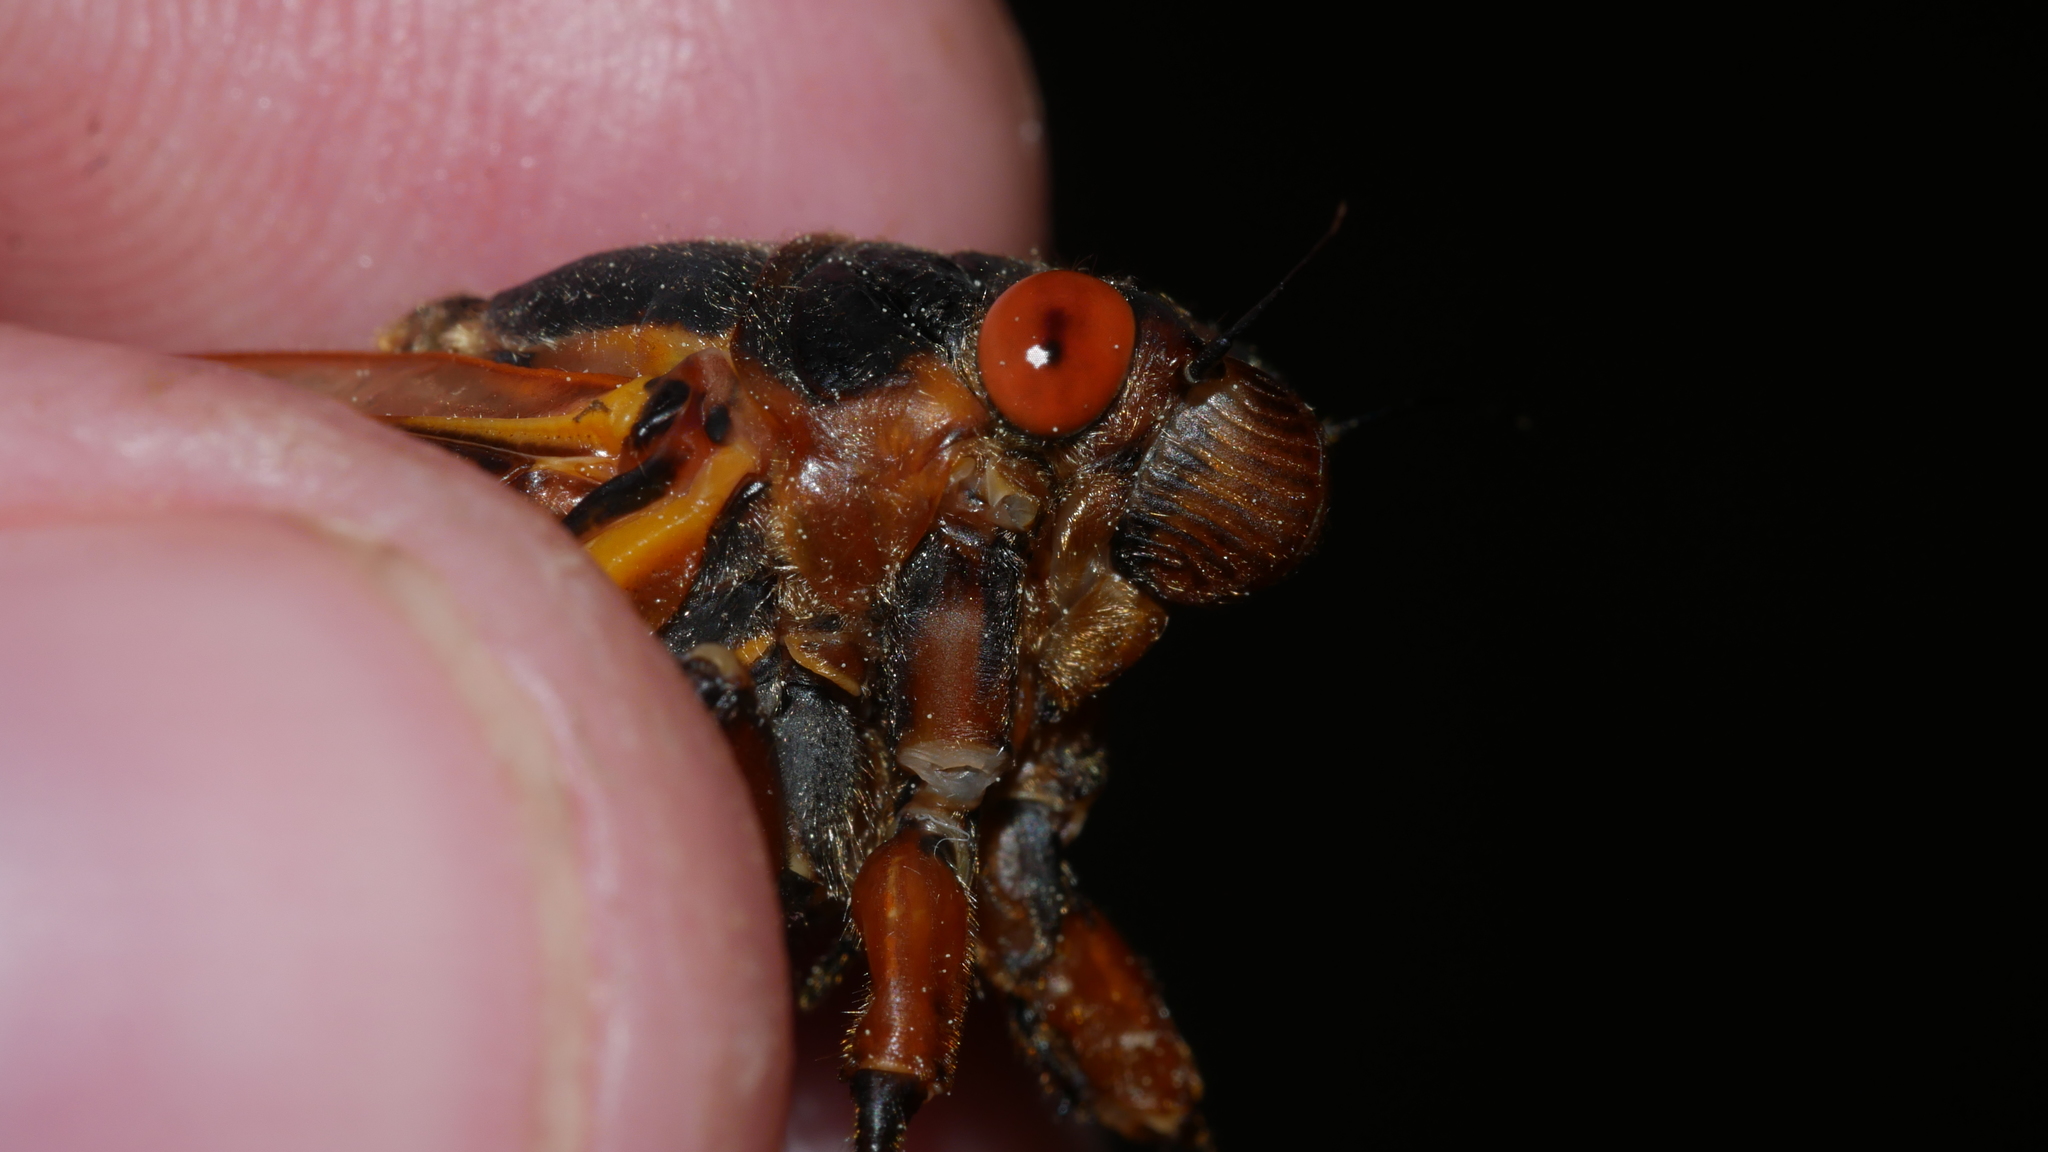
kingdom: Animalia
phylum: Arthropoda
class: Insecta
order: Hemiptera
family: Cicadidae
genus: Magicicada
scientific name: Magicicada septendecim
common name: Periodical cicada
